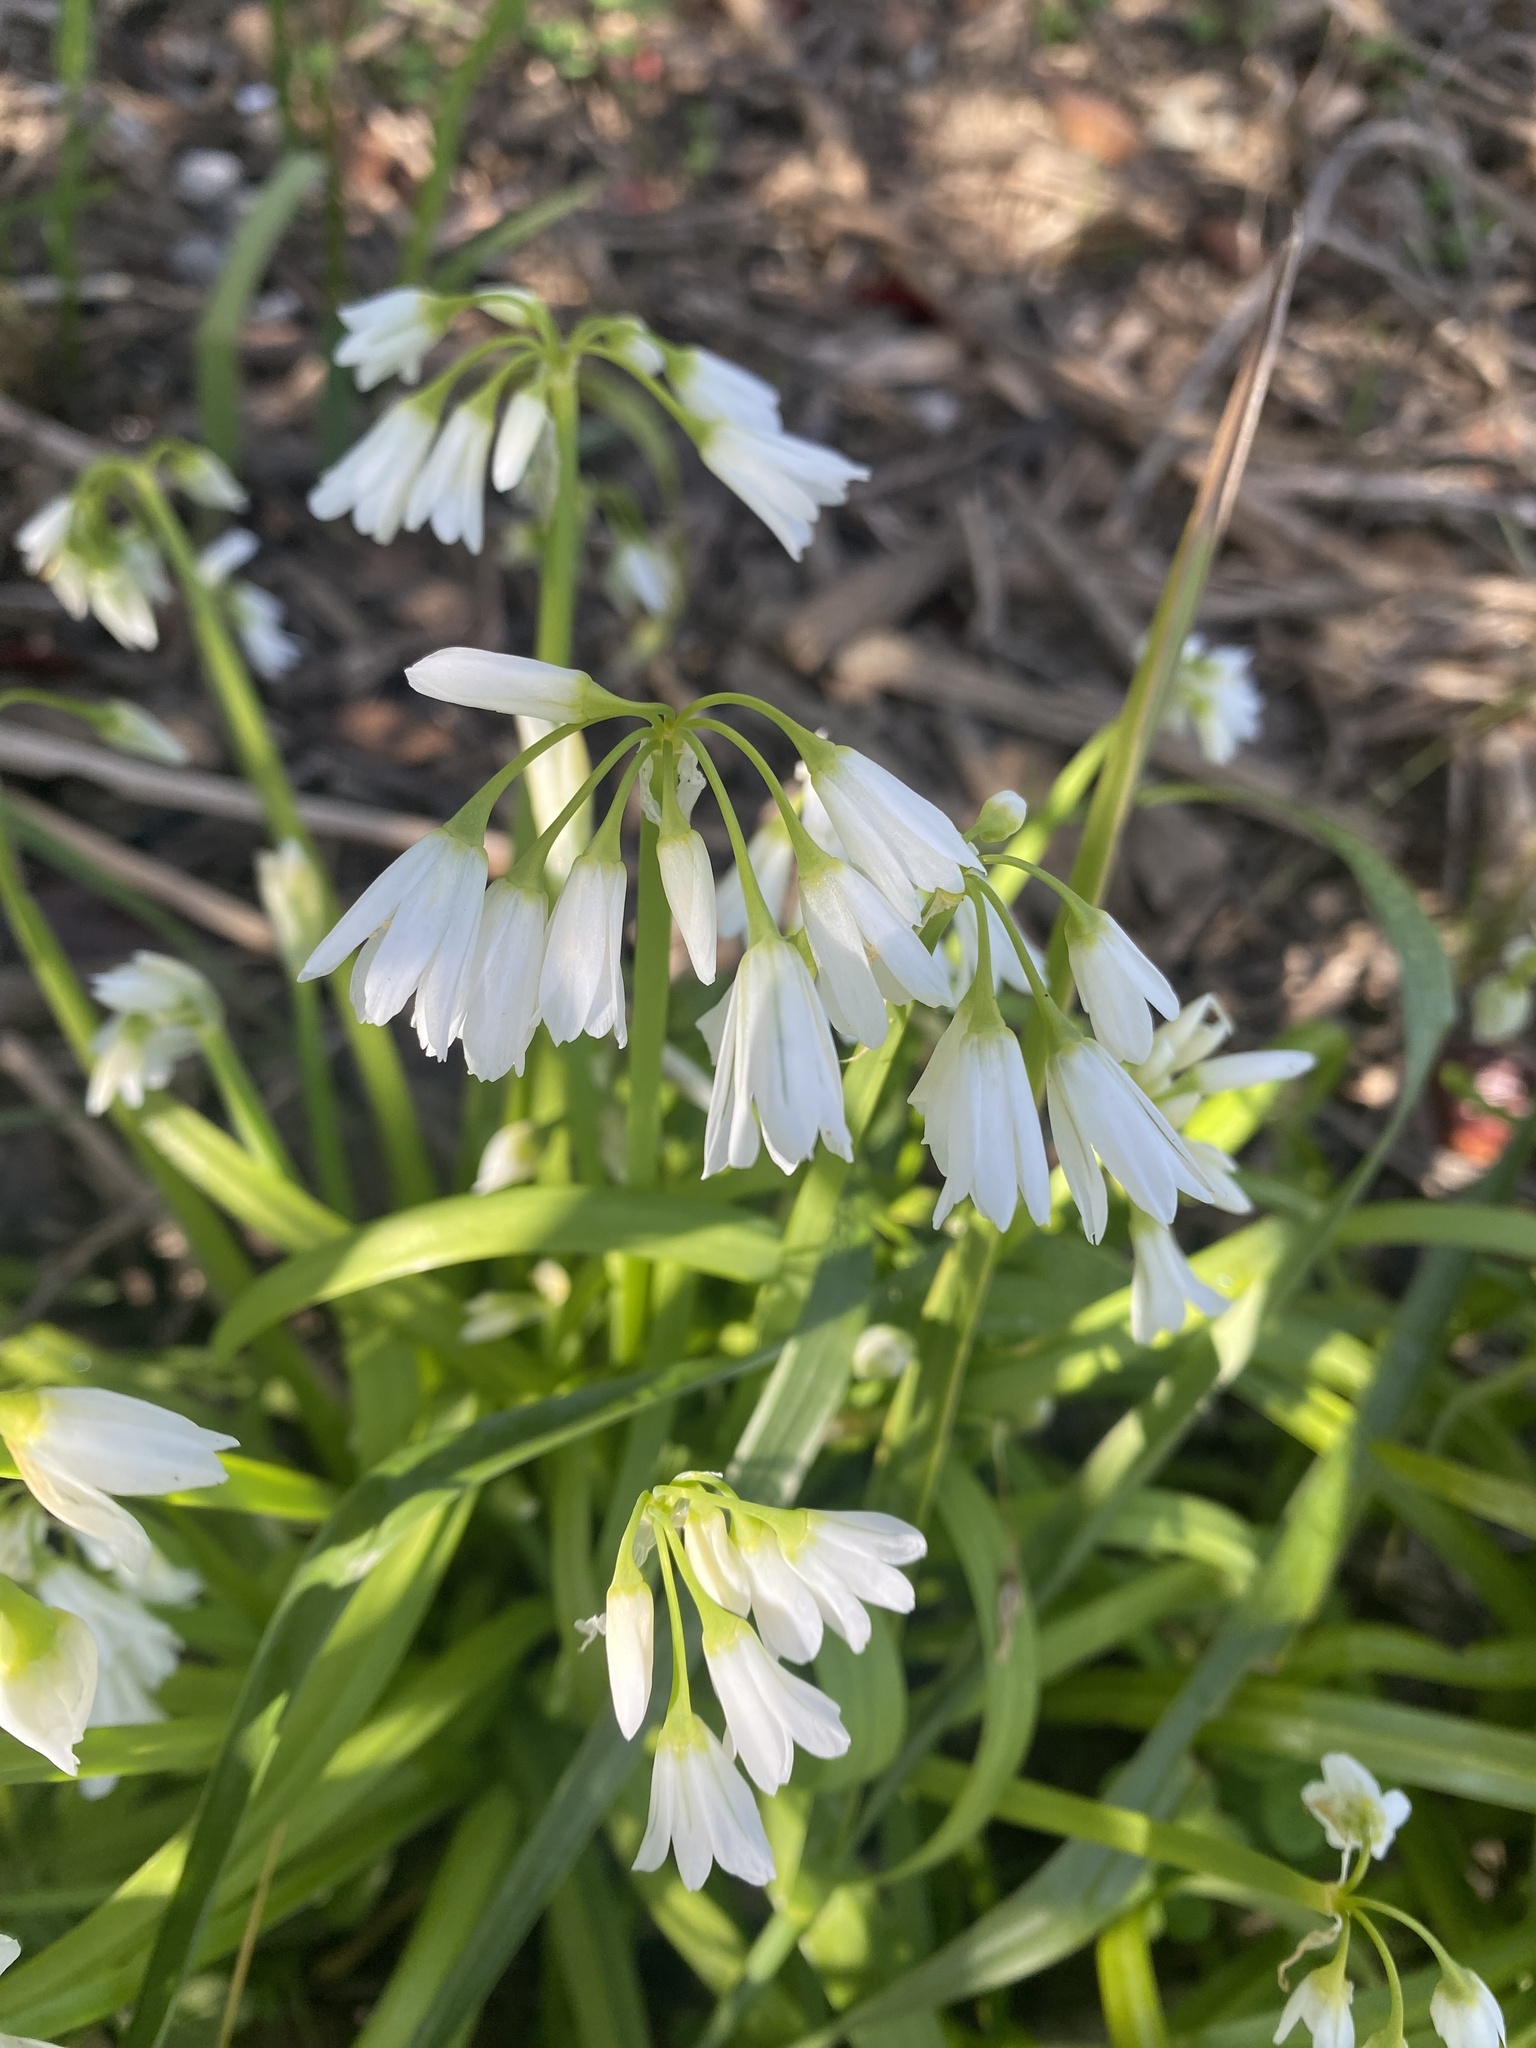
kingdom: Plantae
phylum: Tracheophyta
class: Liliopsida
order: Asparagales
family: Amaryllidaceae
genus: Allium
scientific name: Allium triquetrum
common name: Three-cornered garlic
